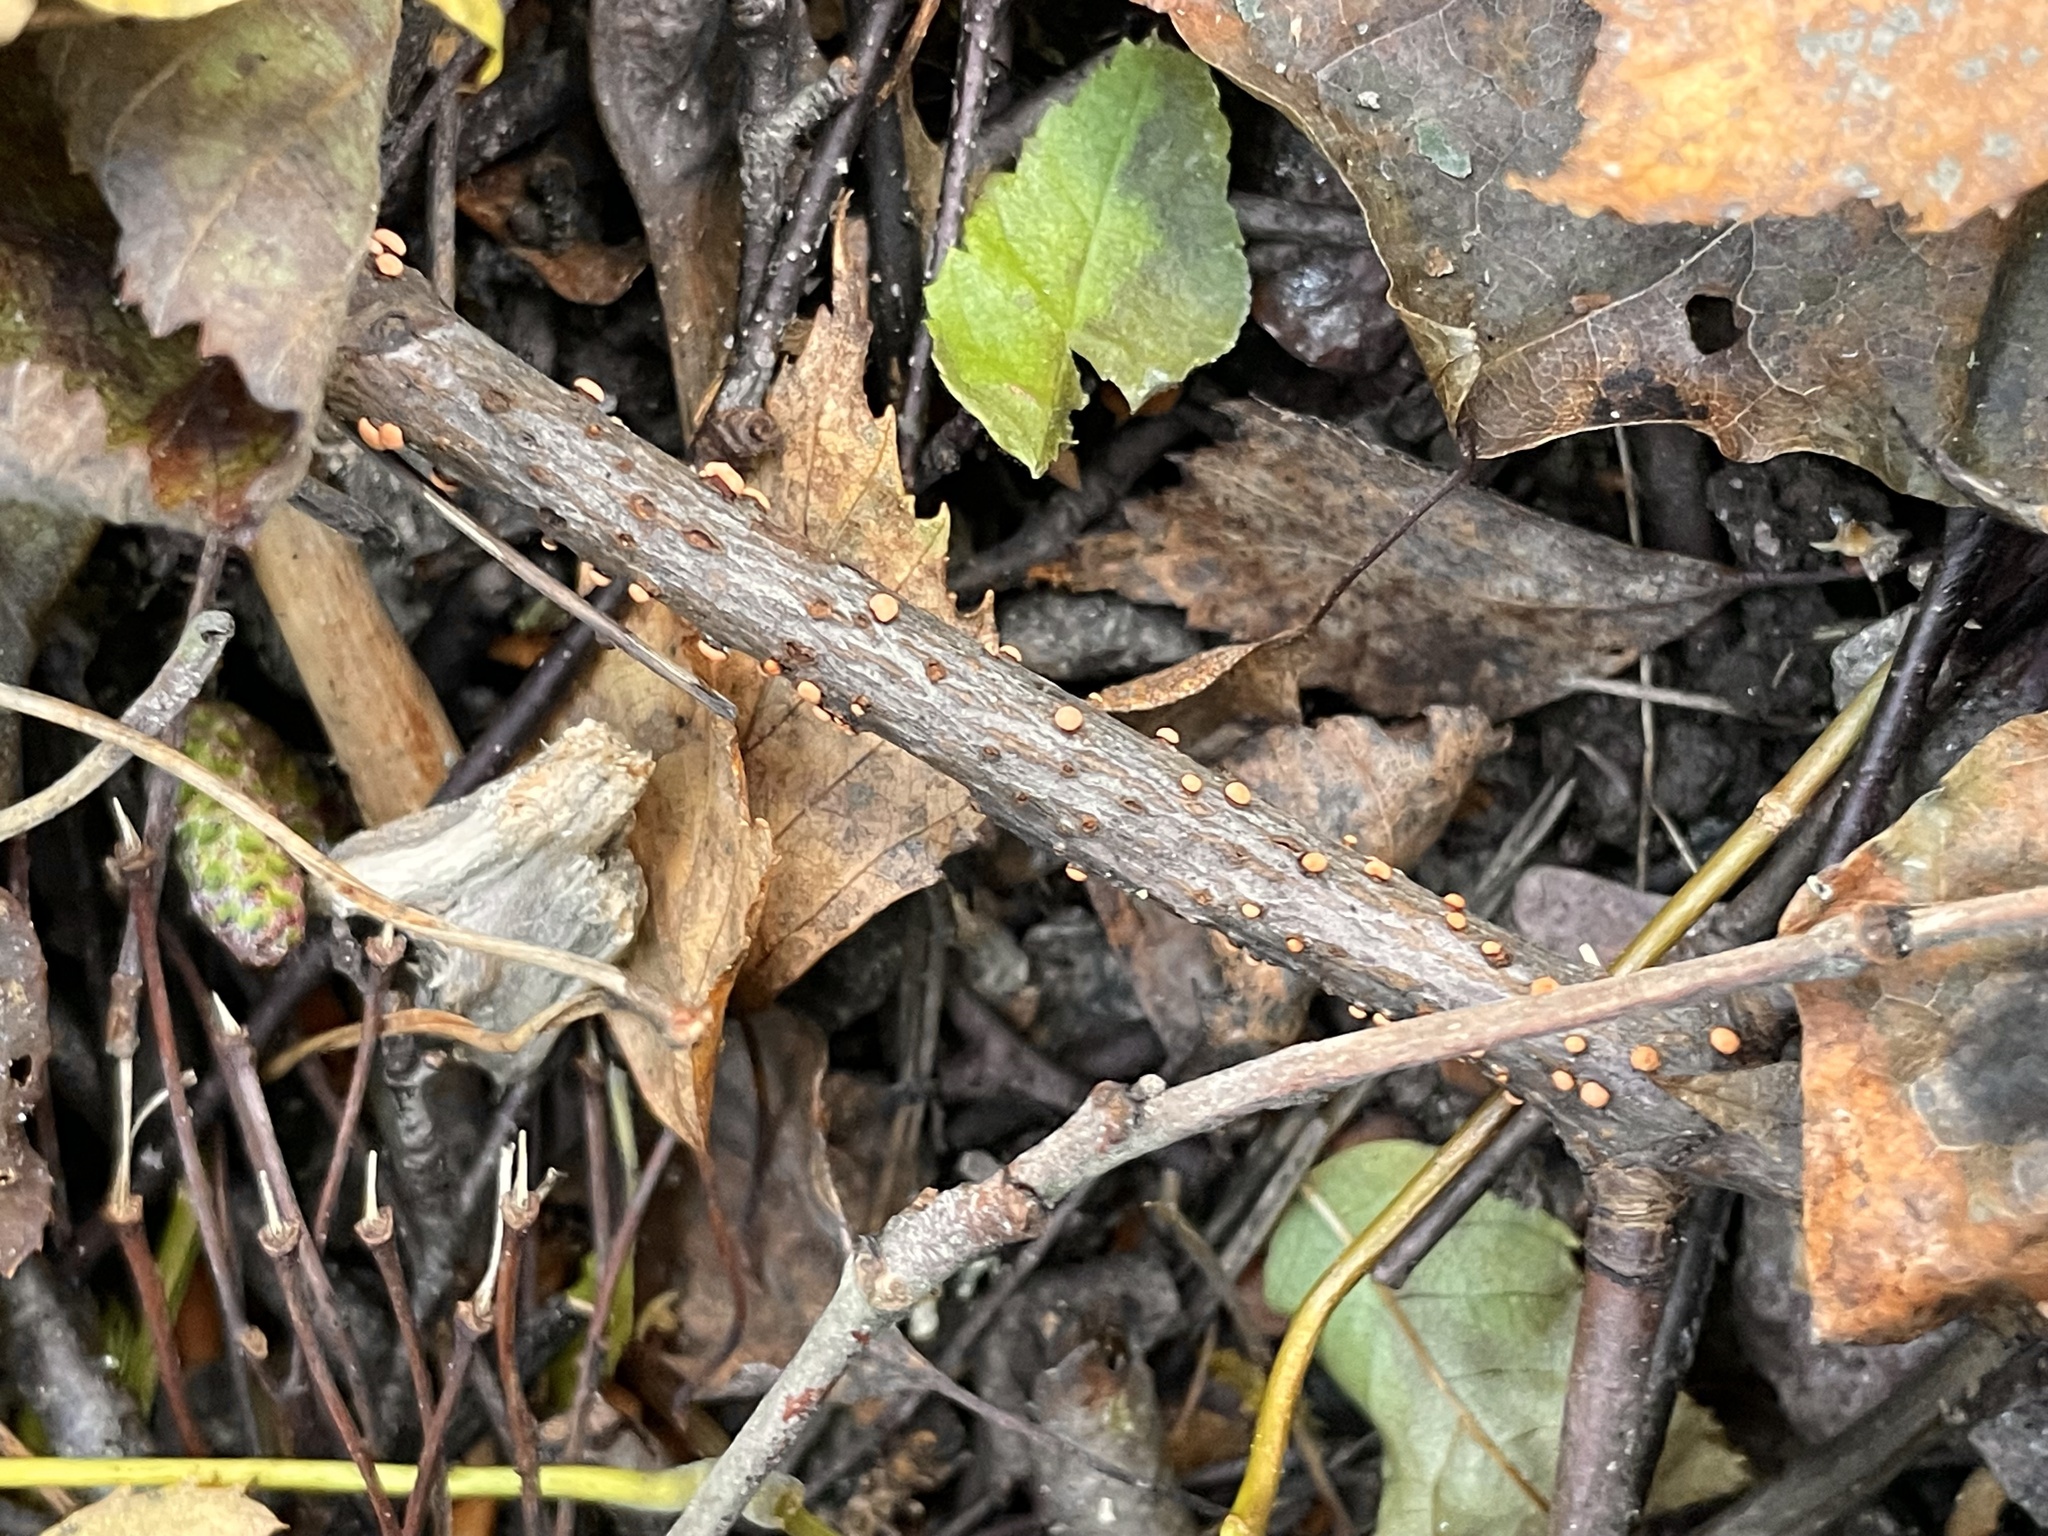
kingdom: Fungi
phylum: Ascomycota
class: Sordariomycetes
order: Hypocreales
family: Nectriaceae
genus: Nectria
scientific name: Nectria cinnabarina
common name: Coral spot
